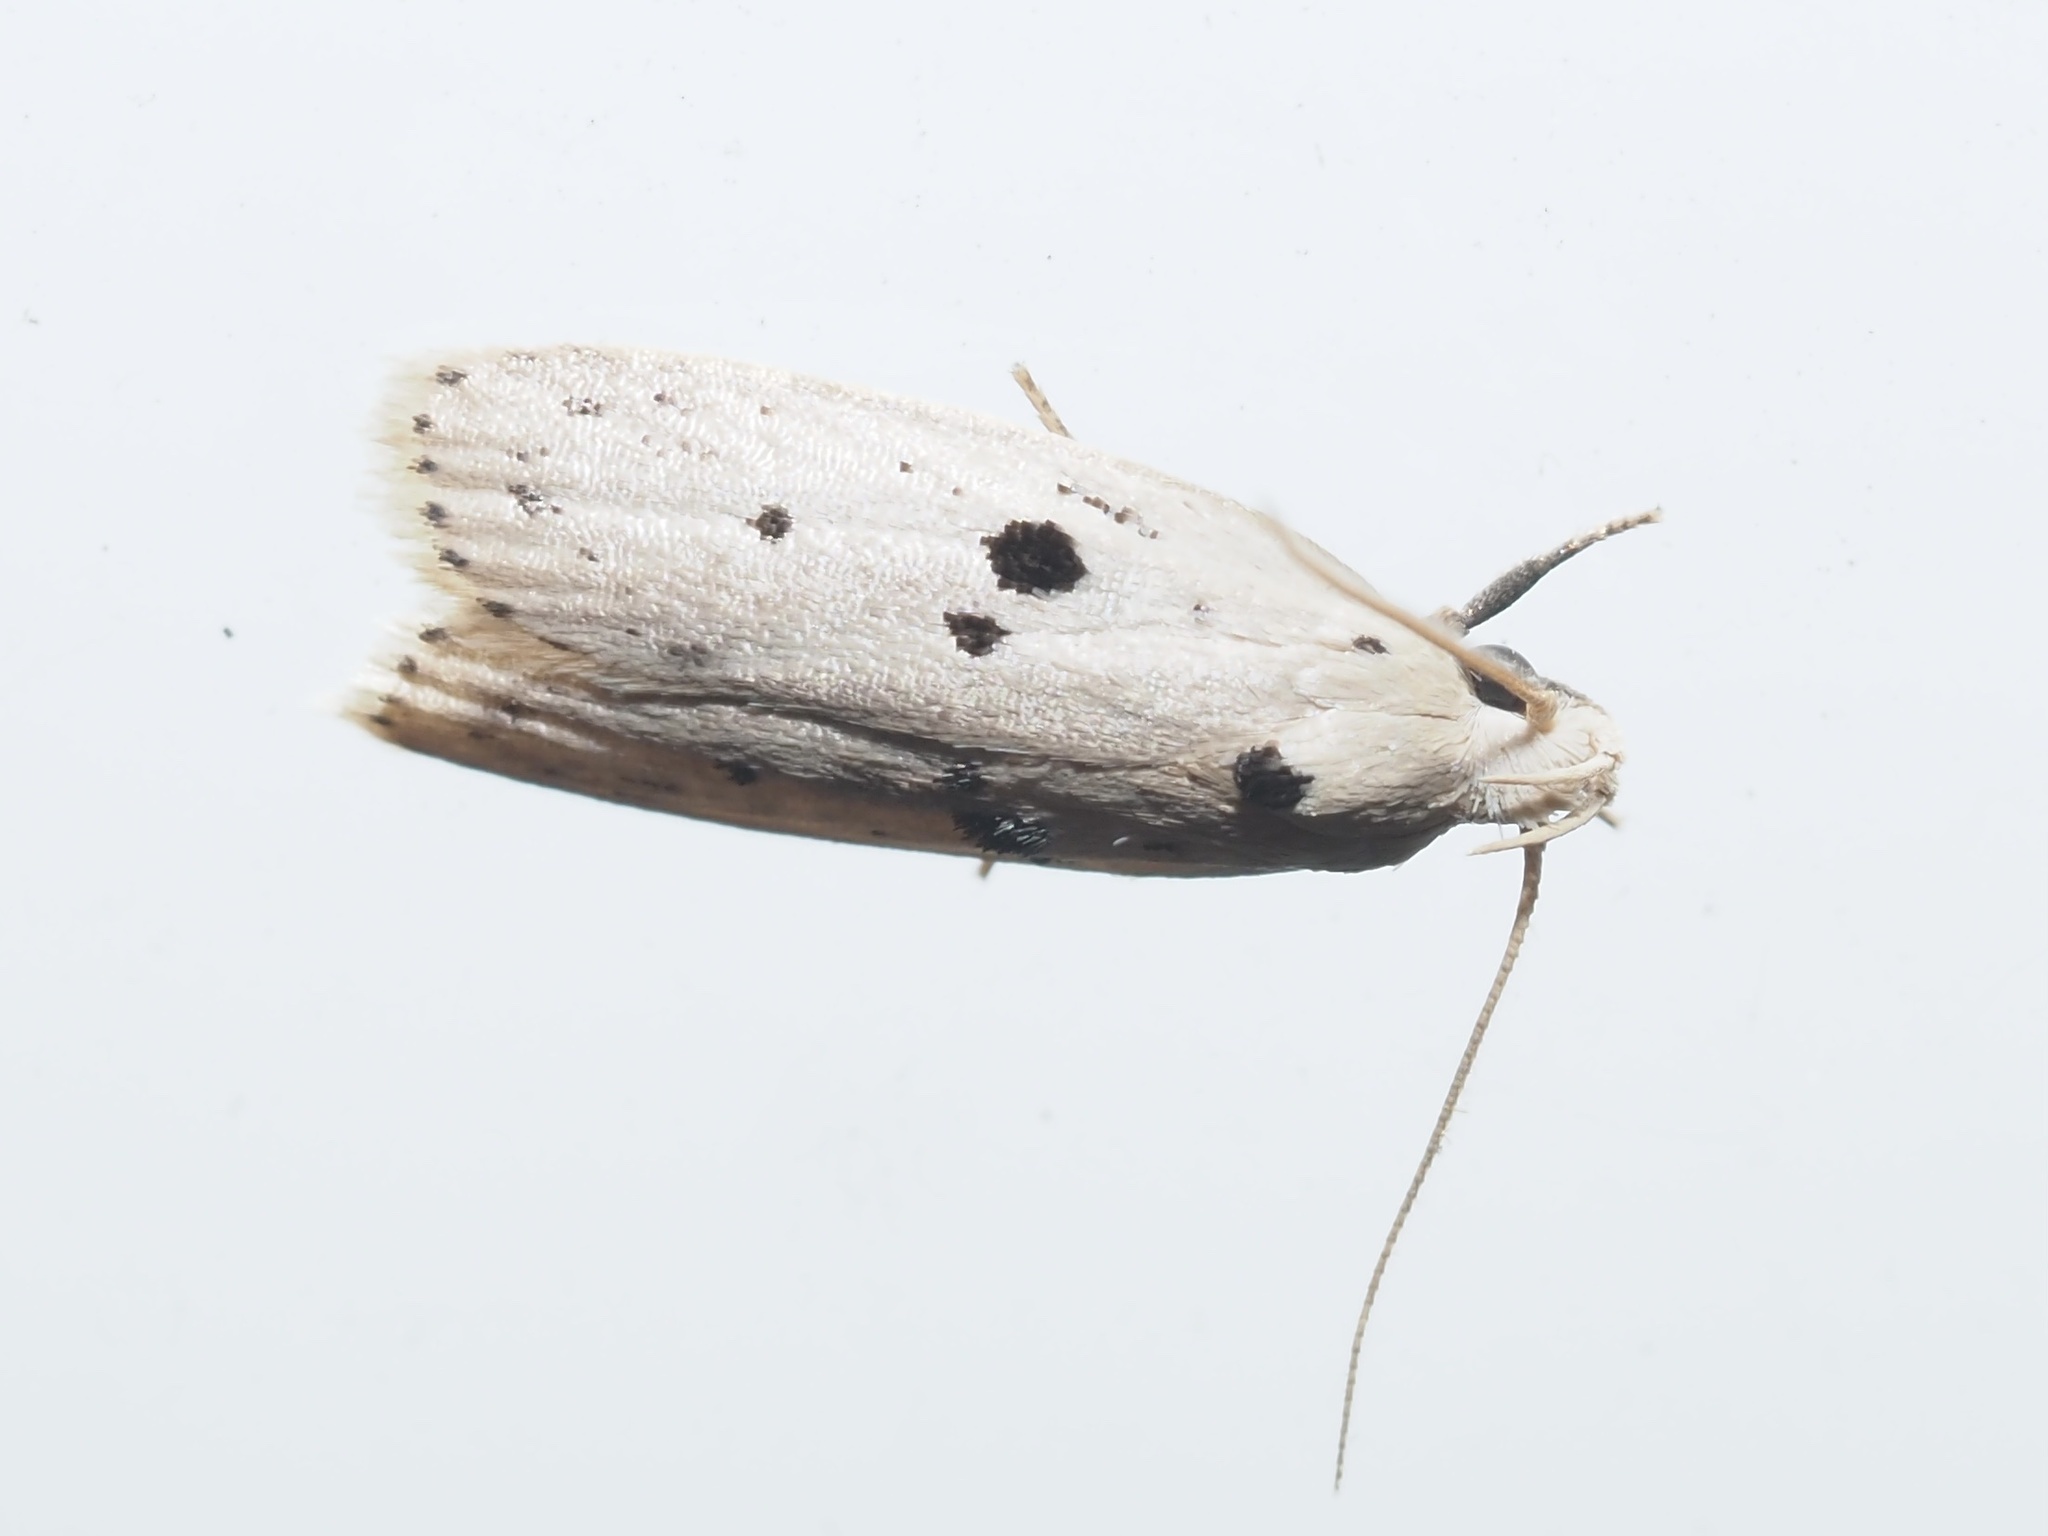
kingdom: Animalia
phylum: Arthropoda
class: Insecta
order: Lepidoptera
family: Peleopodidae
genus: Scythropiodes
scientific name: Scythropiodes issikii
